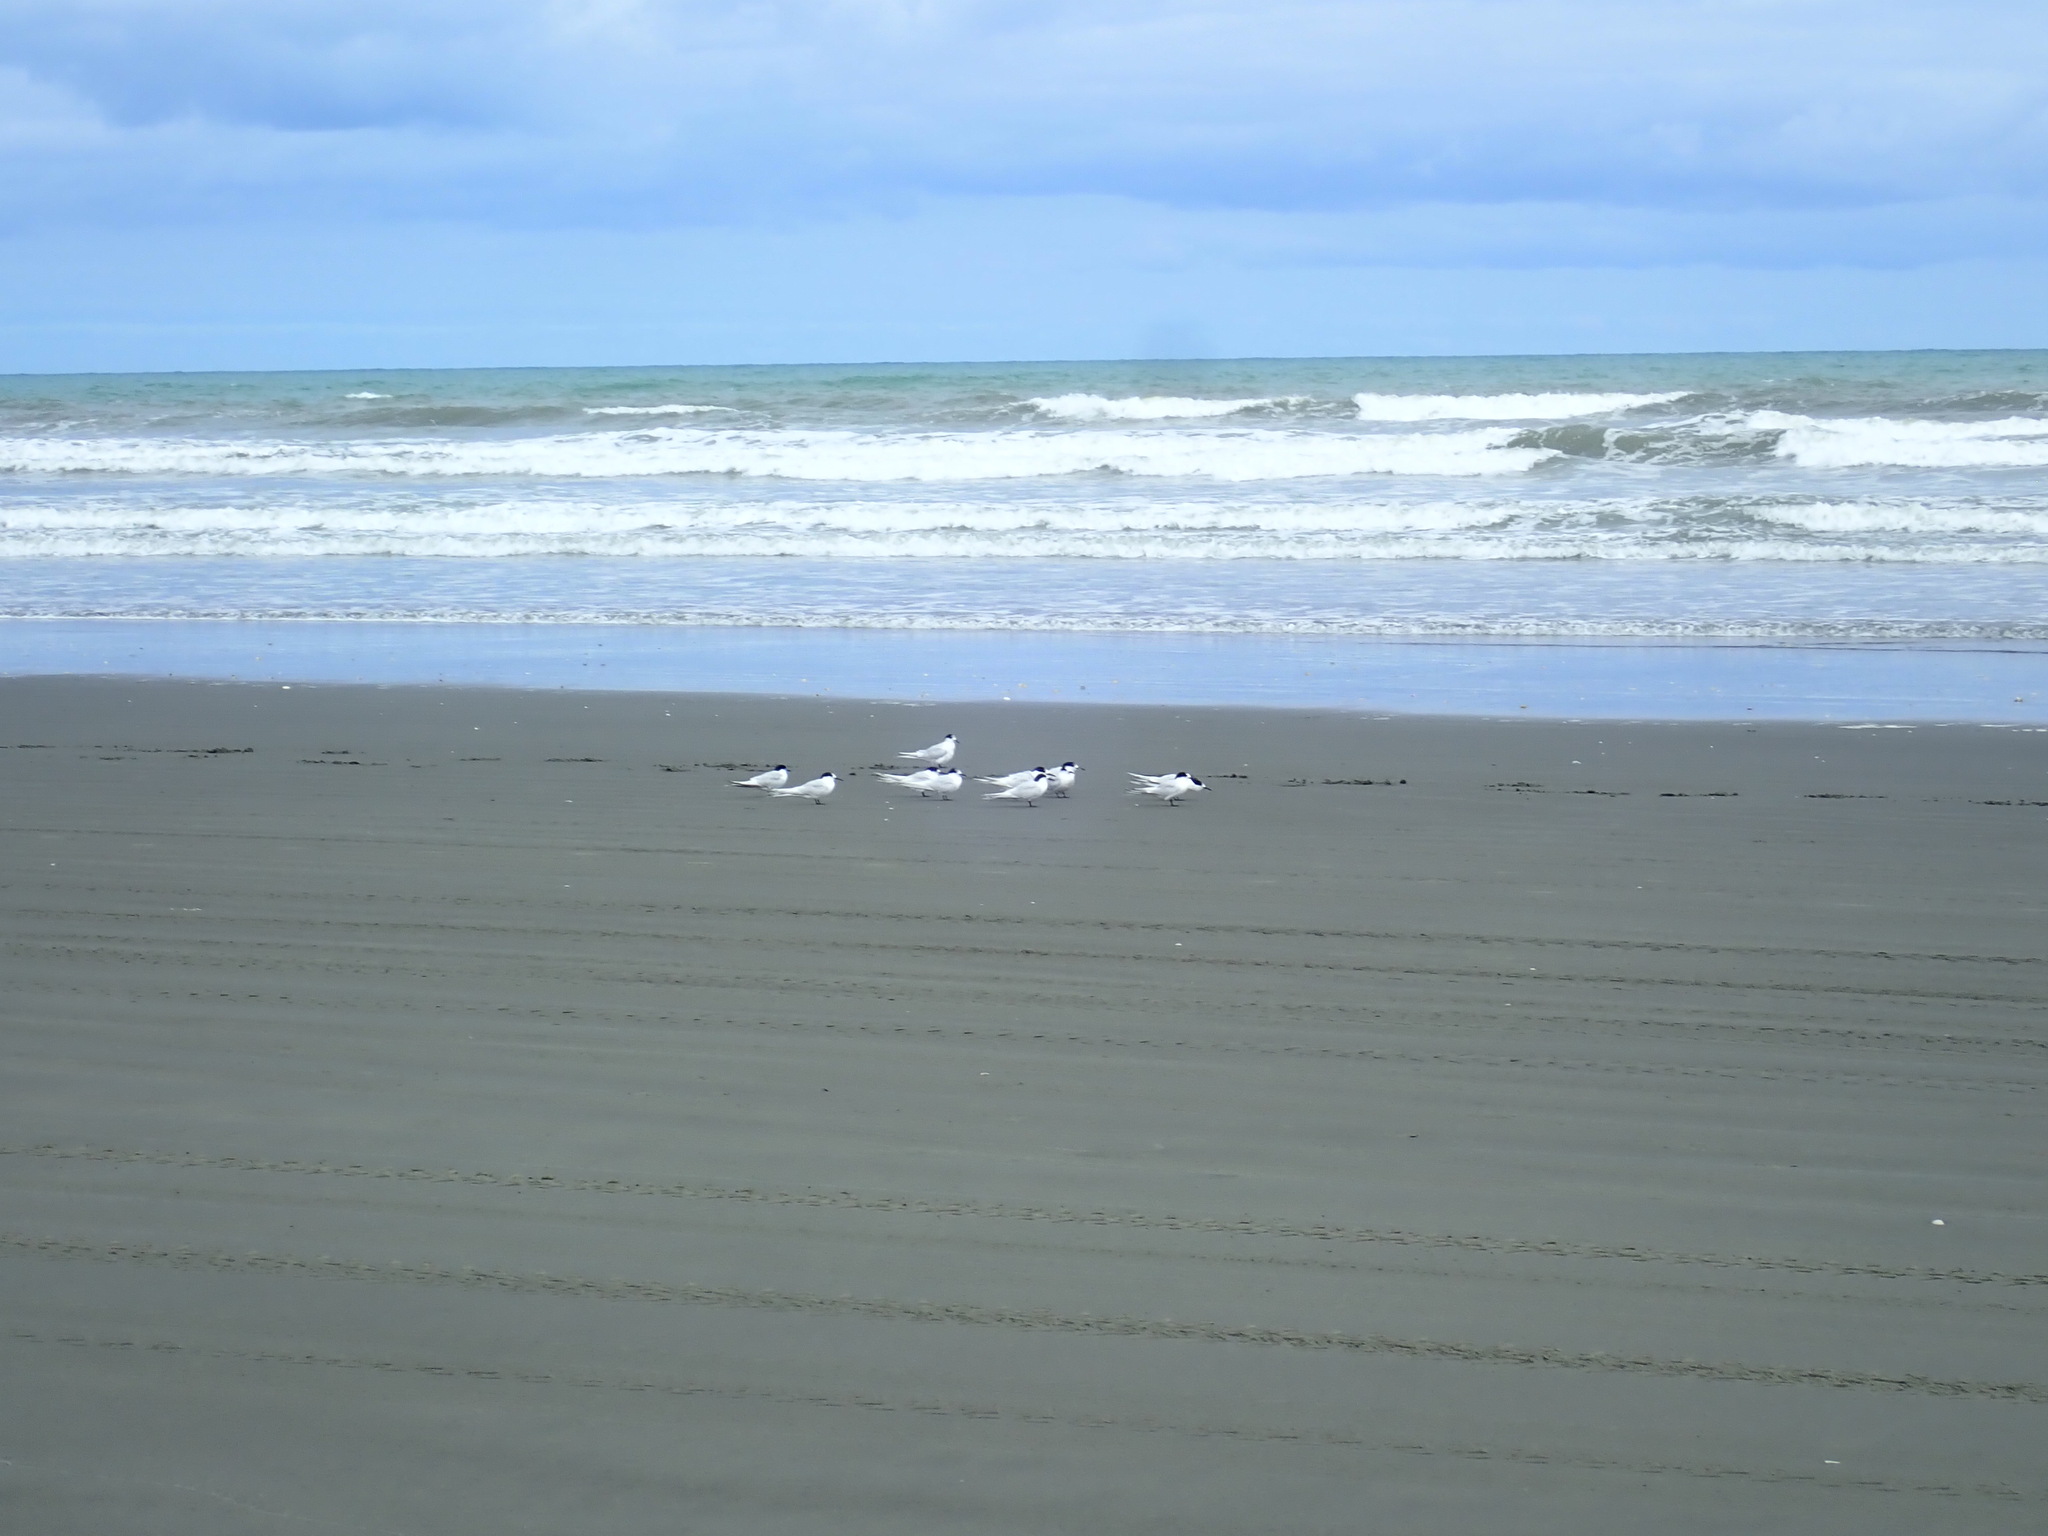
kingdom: Animalia
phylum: Chordata
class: Aves
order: Charadriiformes
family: Laridae
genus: Sterna
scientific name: Sterna striata
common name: White-fronted tern
